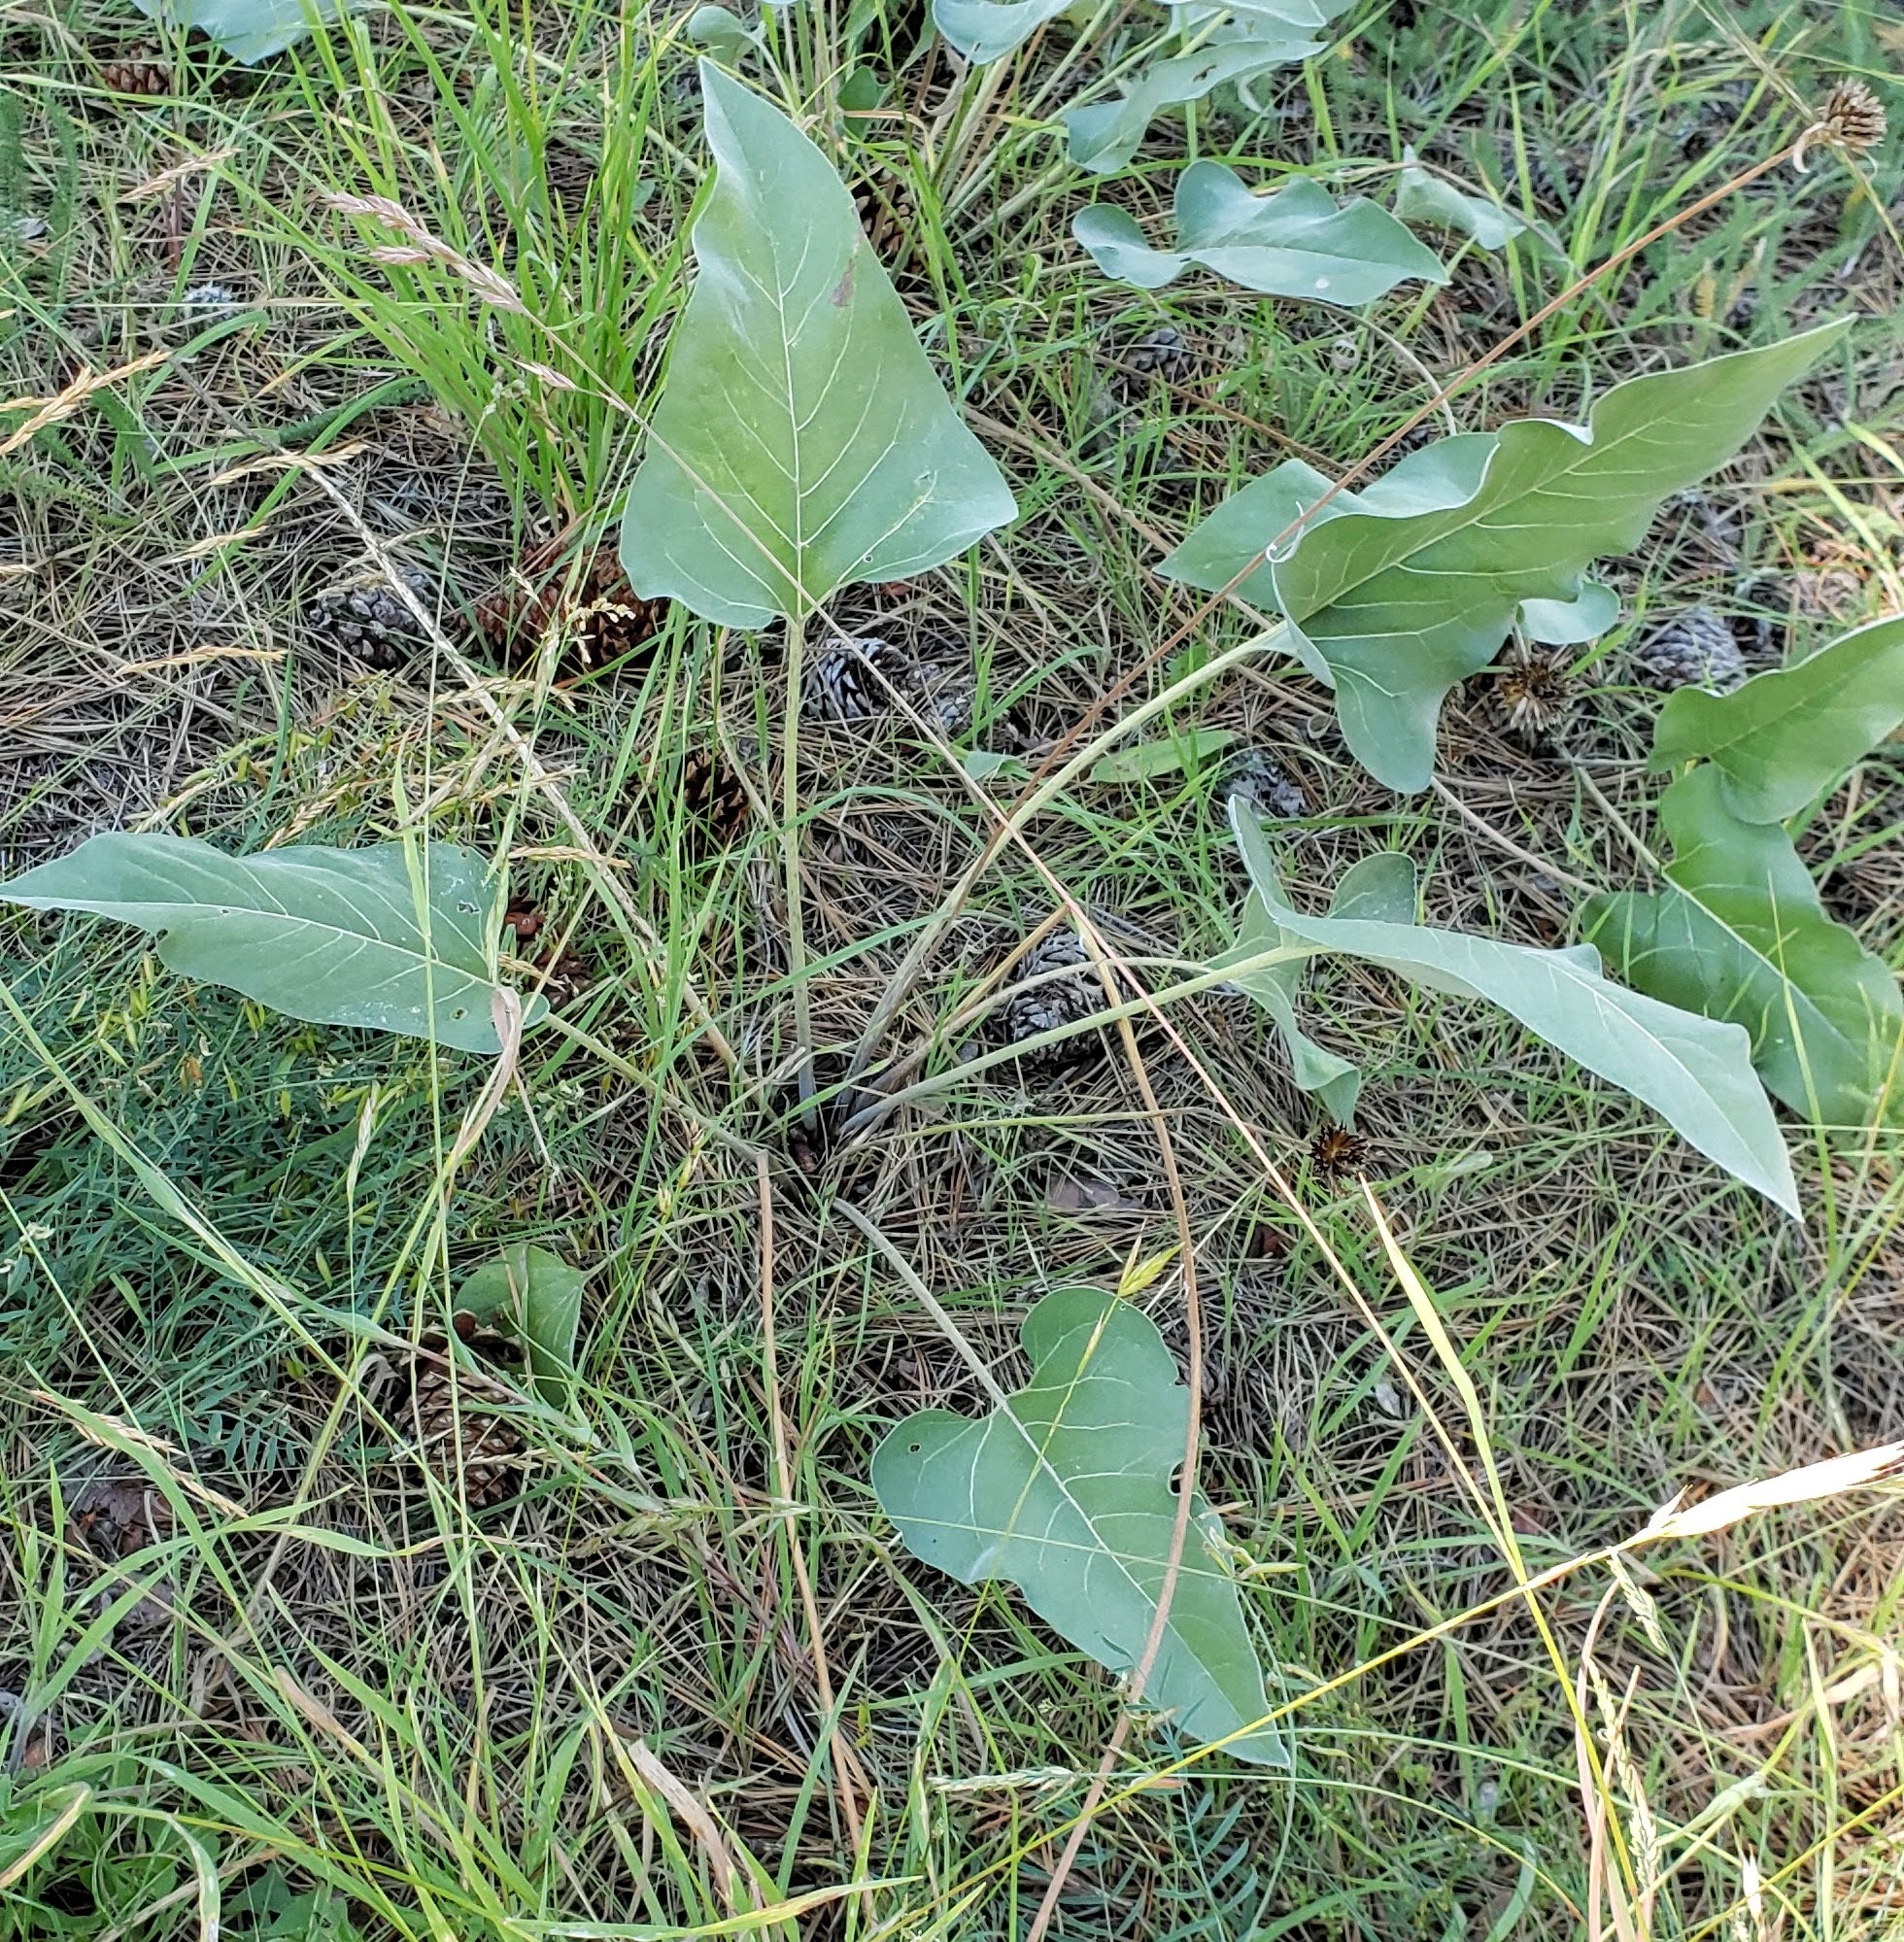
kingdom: Plantae
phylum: Tracheophyta
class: Magnoliopsida
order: Asterales
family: Asteraceae
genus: Wyethia
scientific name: Wyethia sagittata
